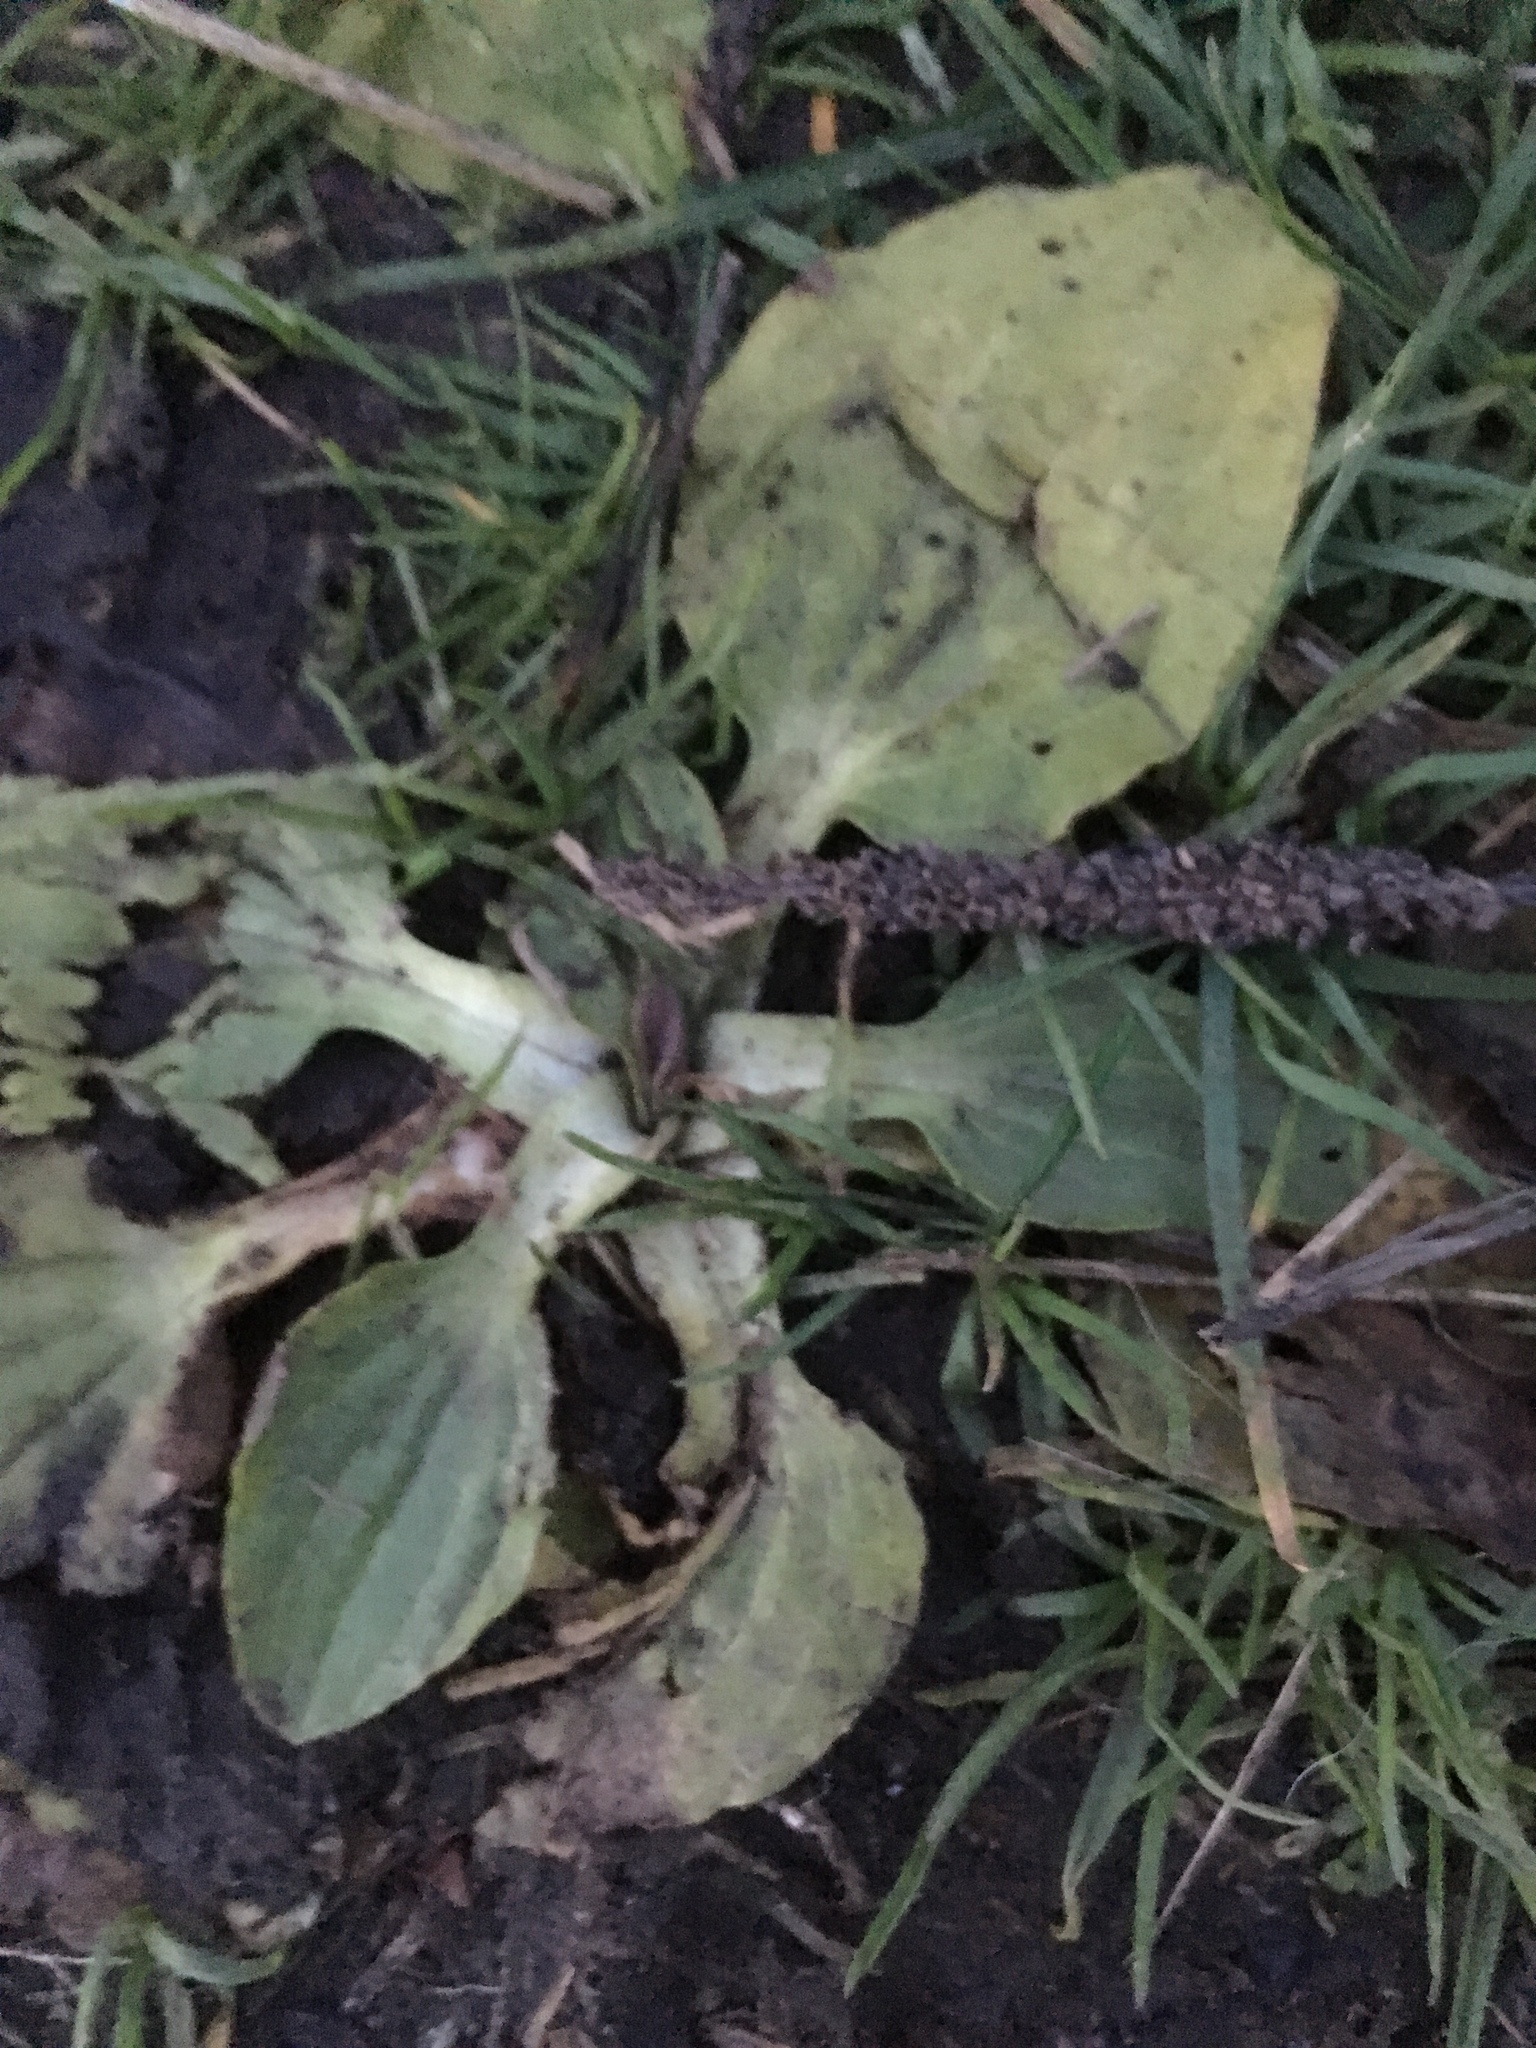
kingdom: Plantae
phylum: Tracheophyta
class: Magnoliopsida
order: Lamiales
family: Plantaginaceae
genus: Plantago
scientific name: Plantago major
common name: Common plantain
